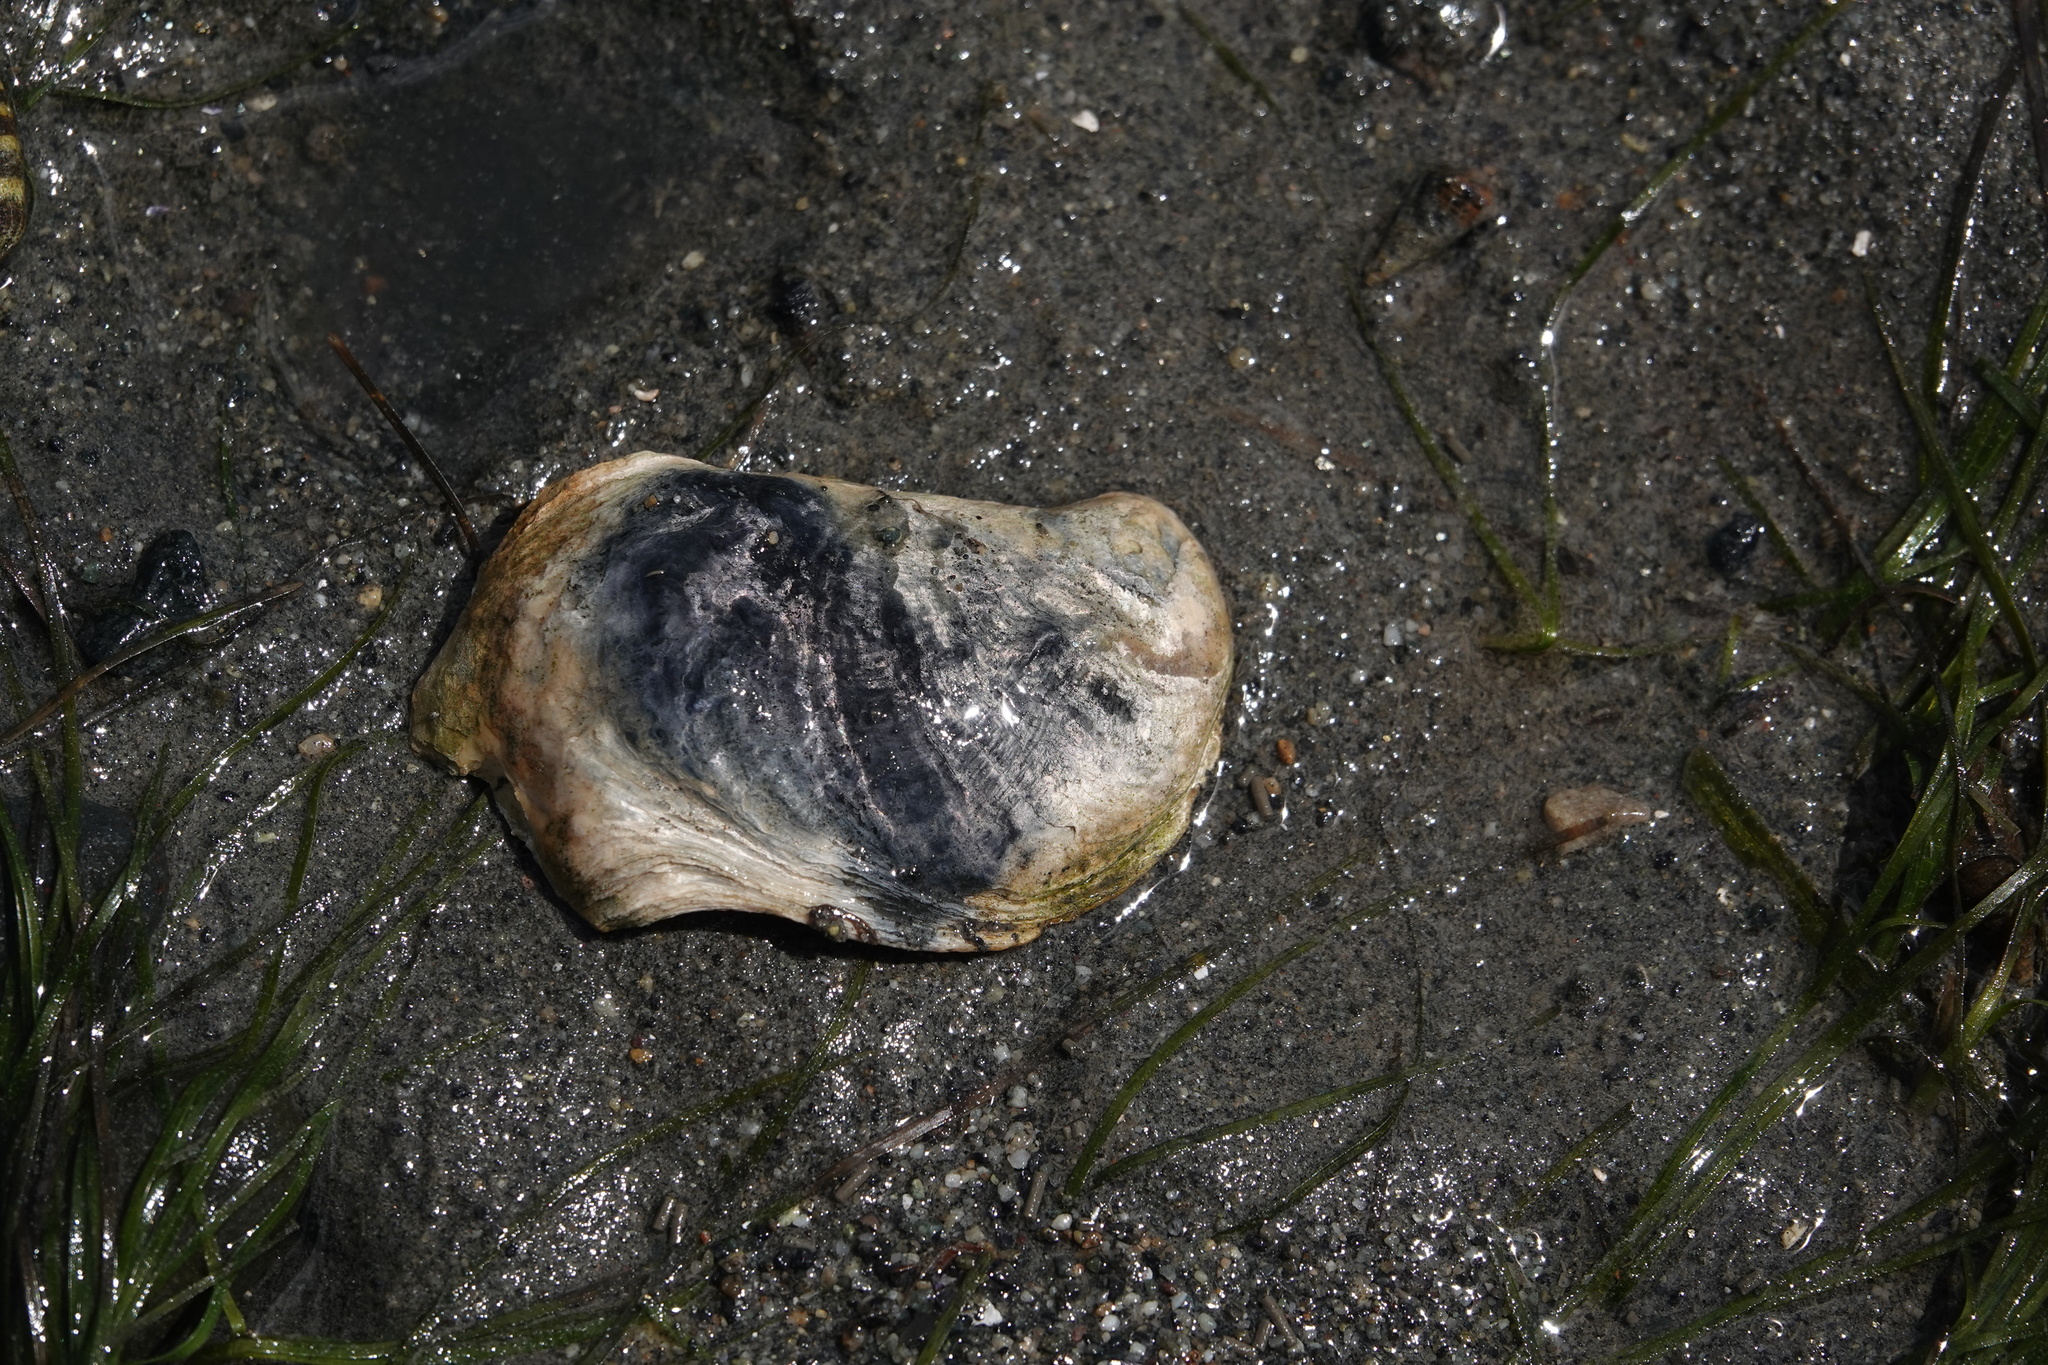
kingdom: Animalia
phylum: Mollusca
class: Bivalvia
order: Ostreida
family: Ostreidae
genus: Magallana
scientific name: Magallana gigas
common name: Pacific oyster
